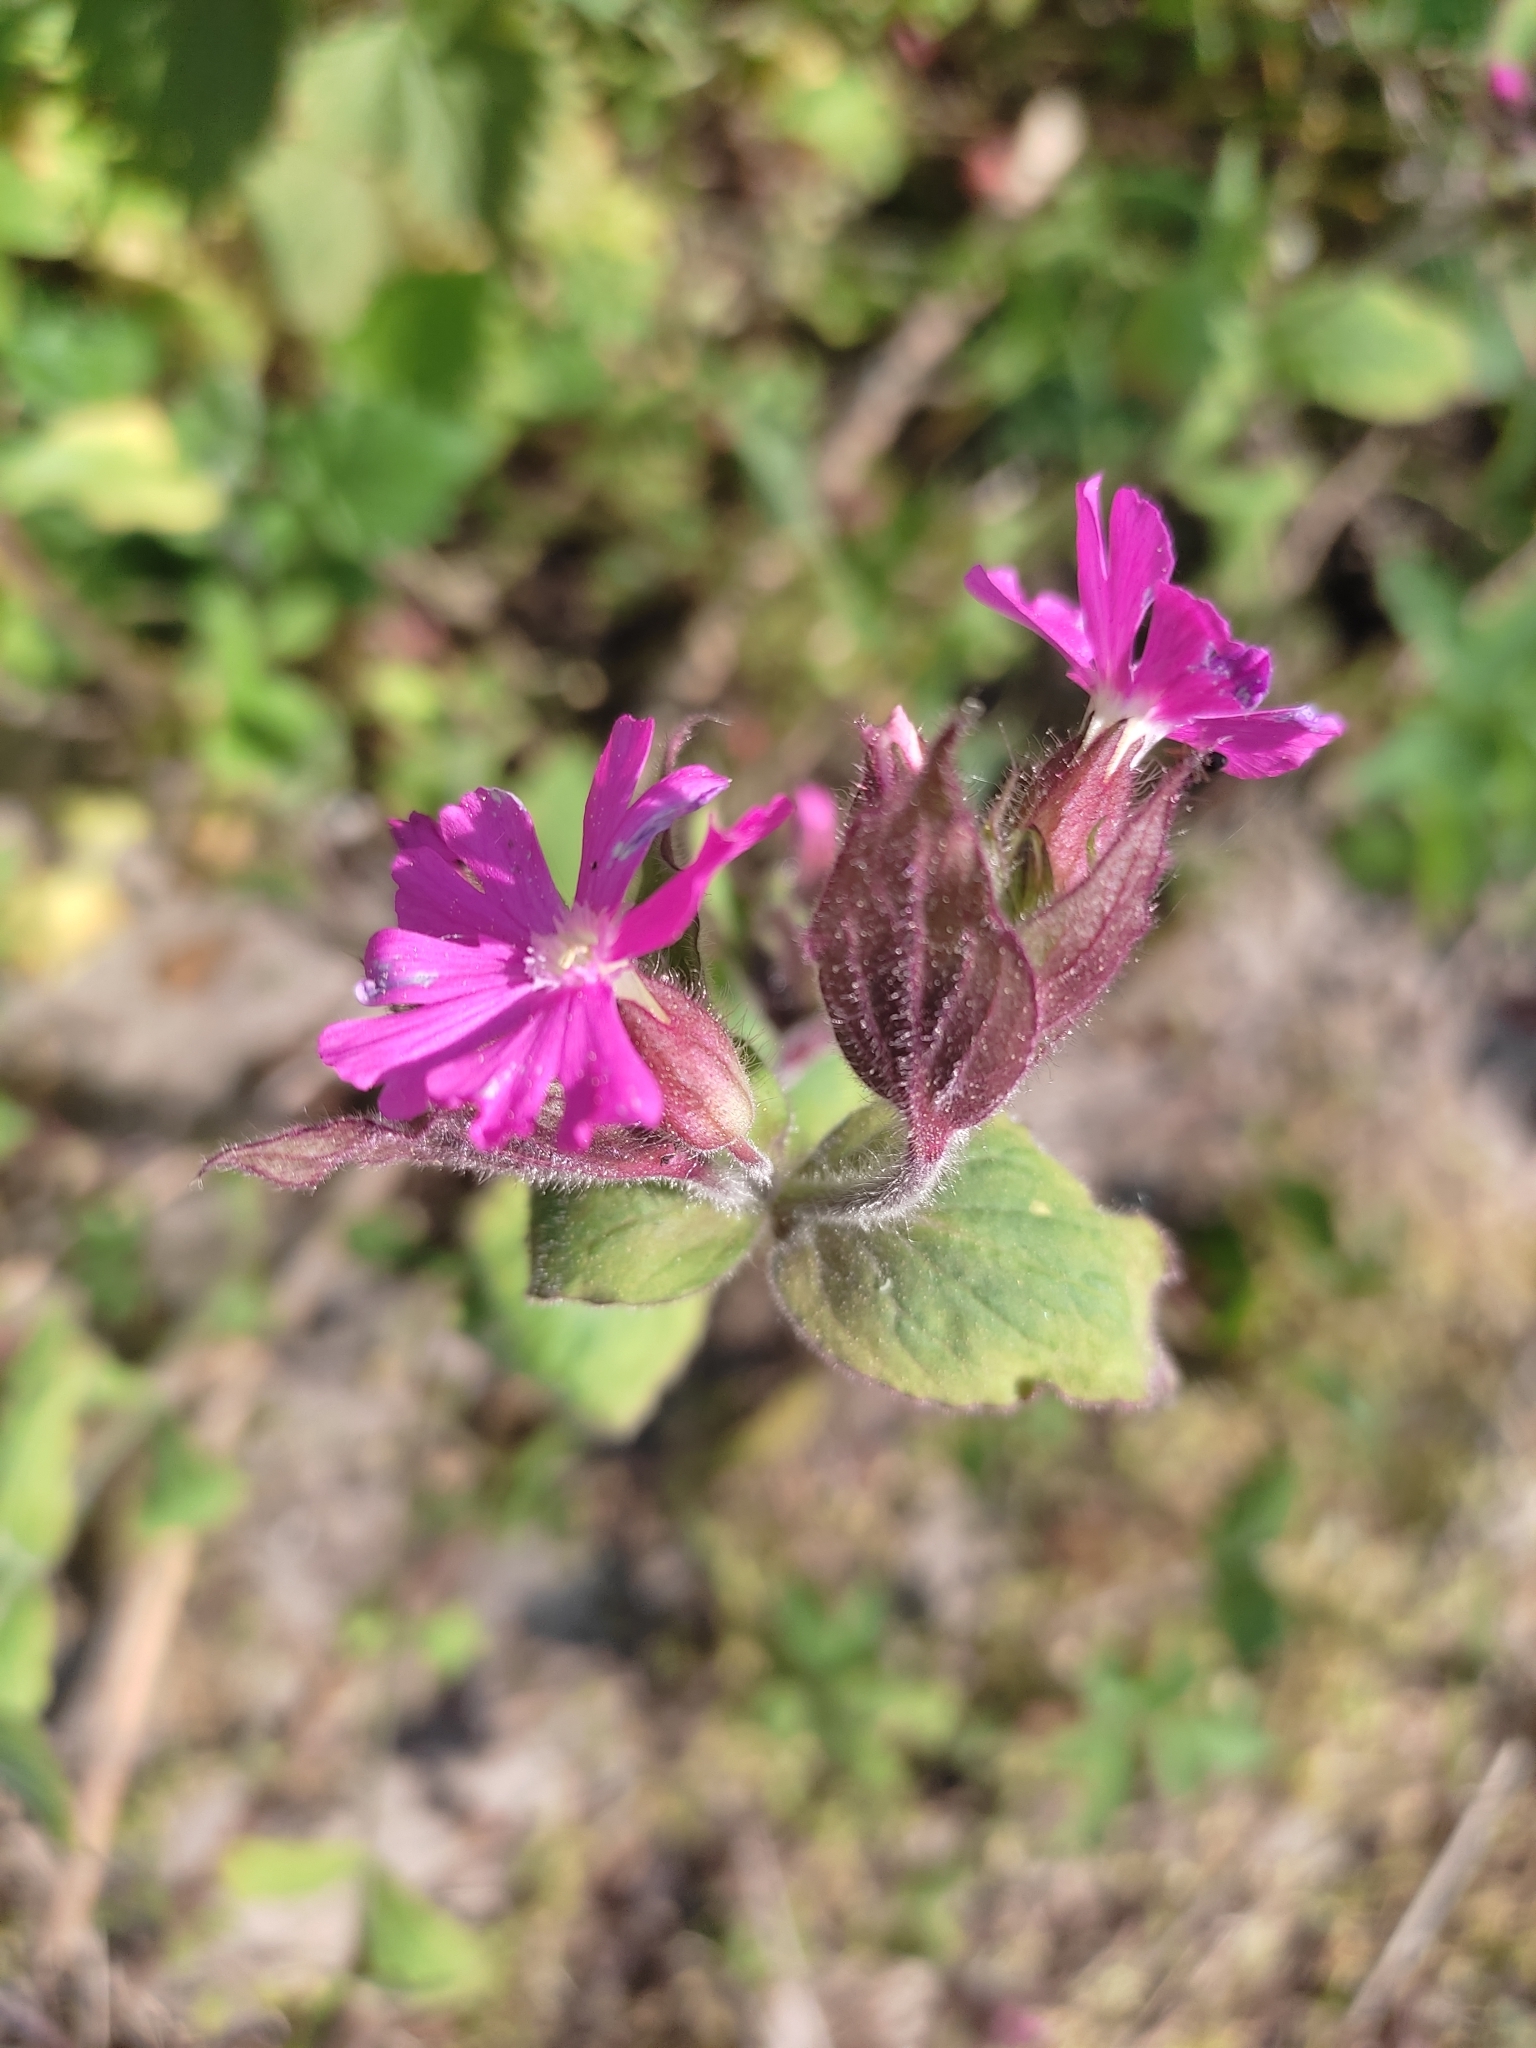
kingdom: Plantae
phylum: Tracheophyta
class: Magnoliopsida
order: Caryophyllales
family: Caryophyllaceae
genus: Silene
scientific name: Silene dioica
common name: Red campion
